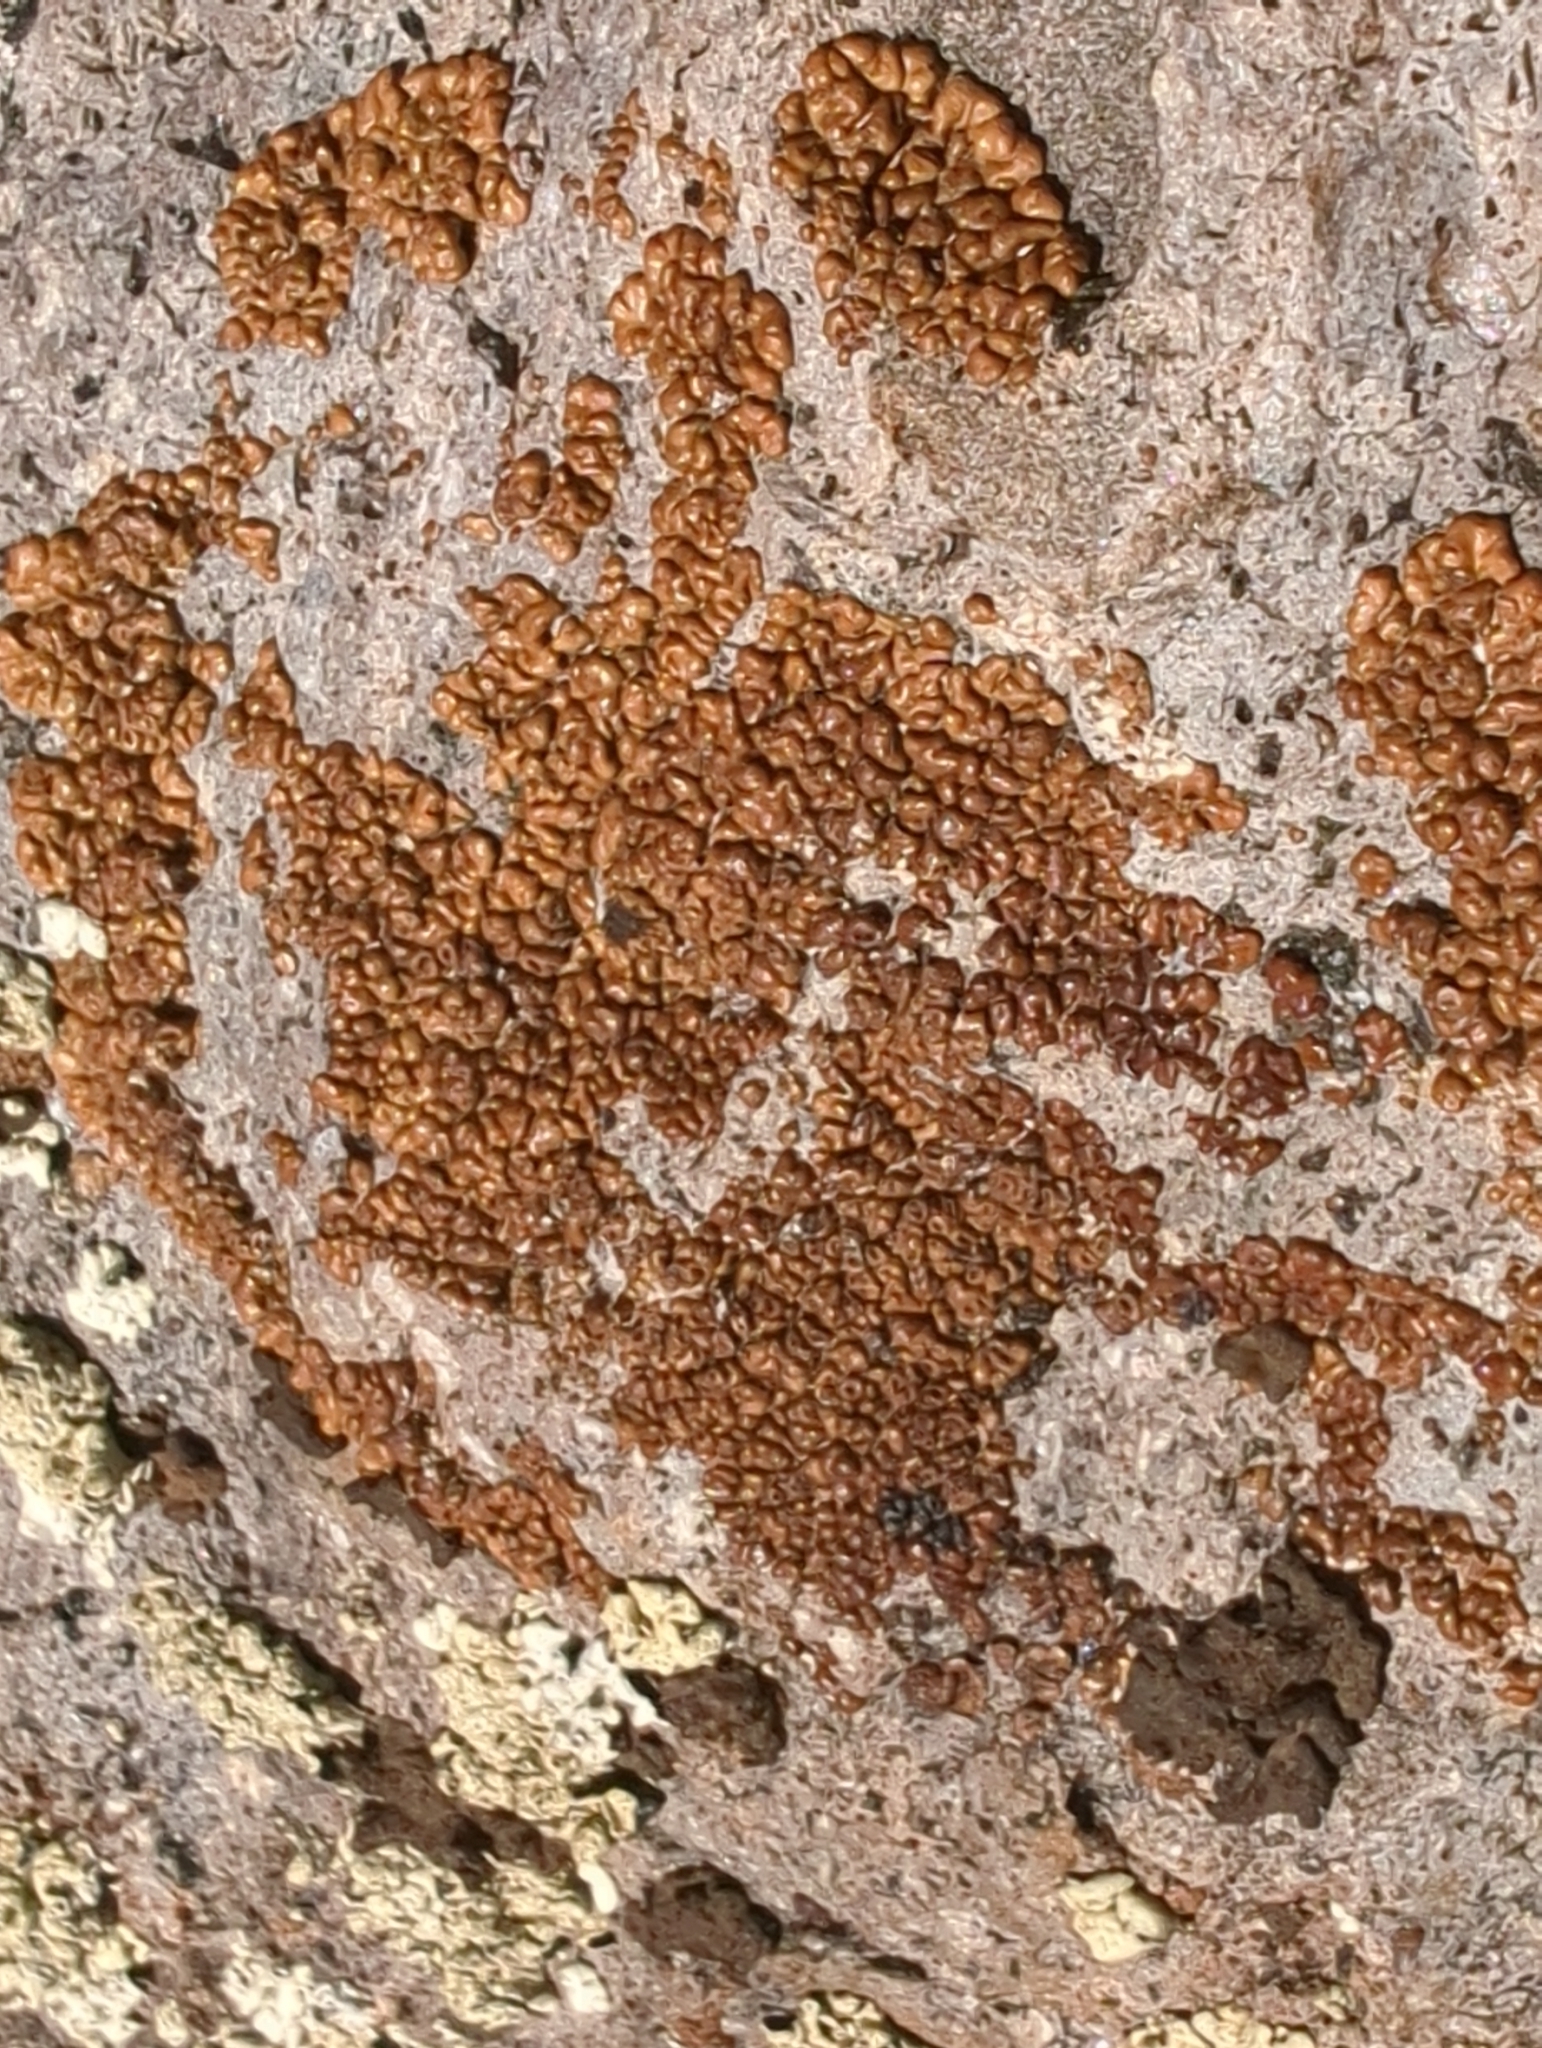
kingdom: Fungi
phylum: Ascomycota
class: Lecanoromycetes
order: Acarosporales
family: Acarosporaceae
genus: Acarospora
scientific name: Acarospora rosulata
